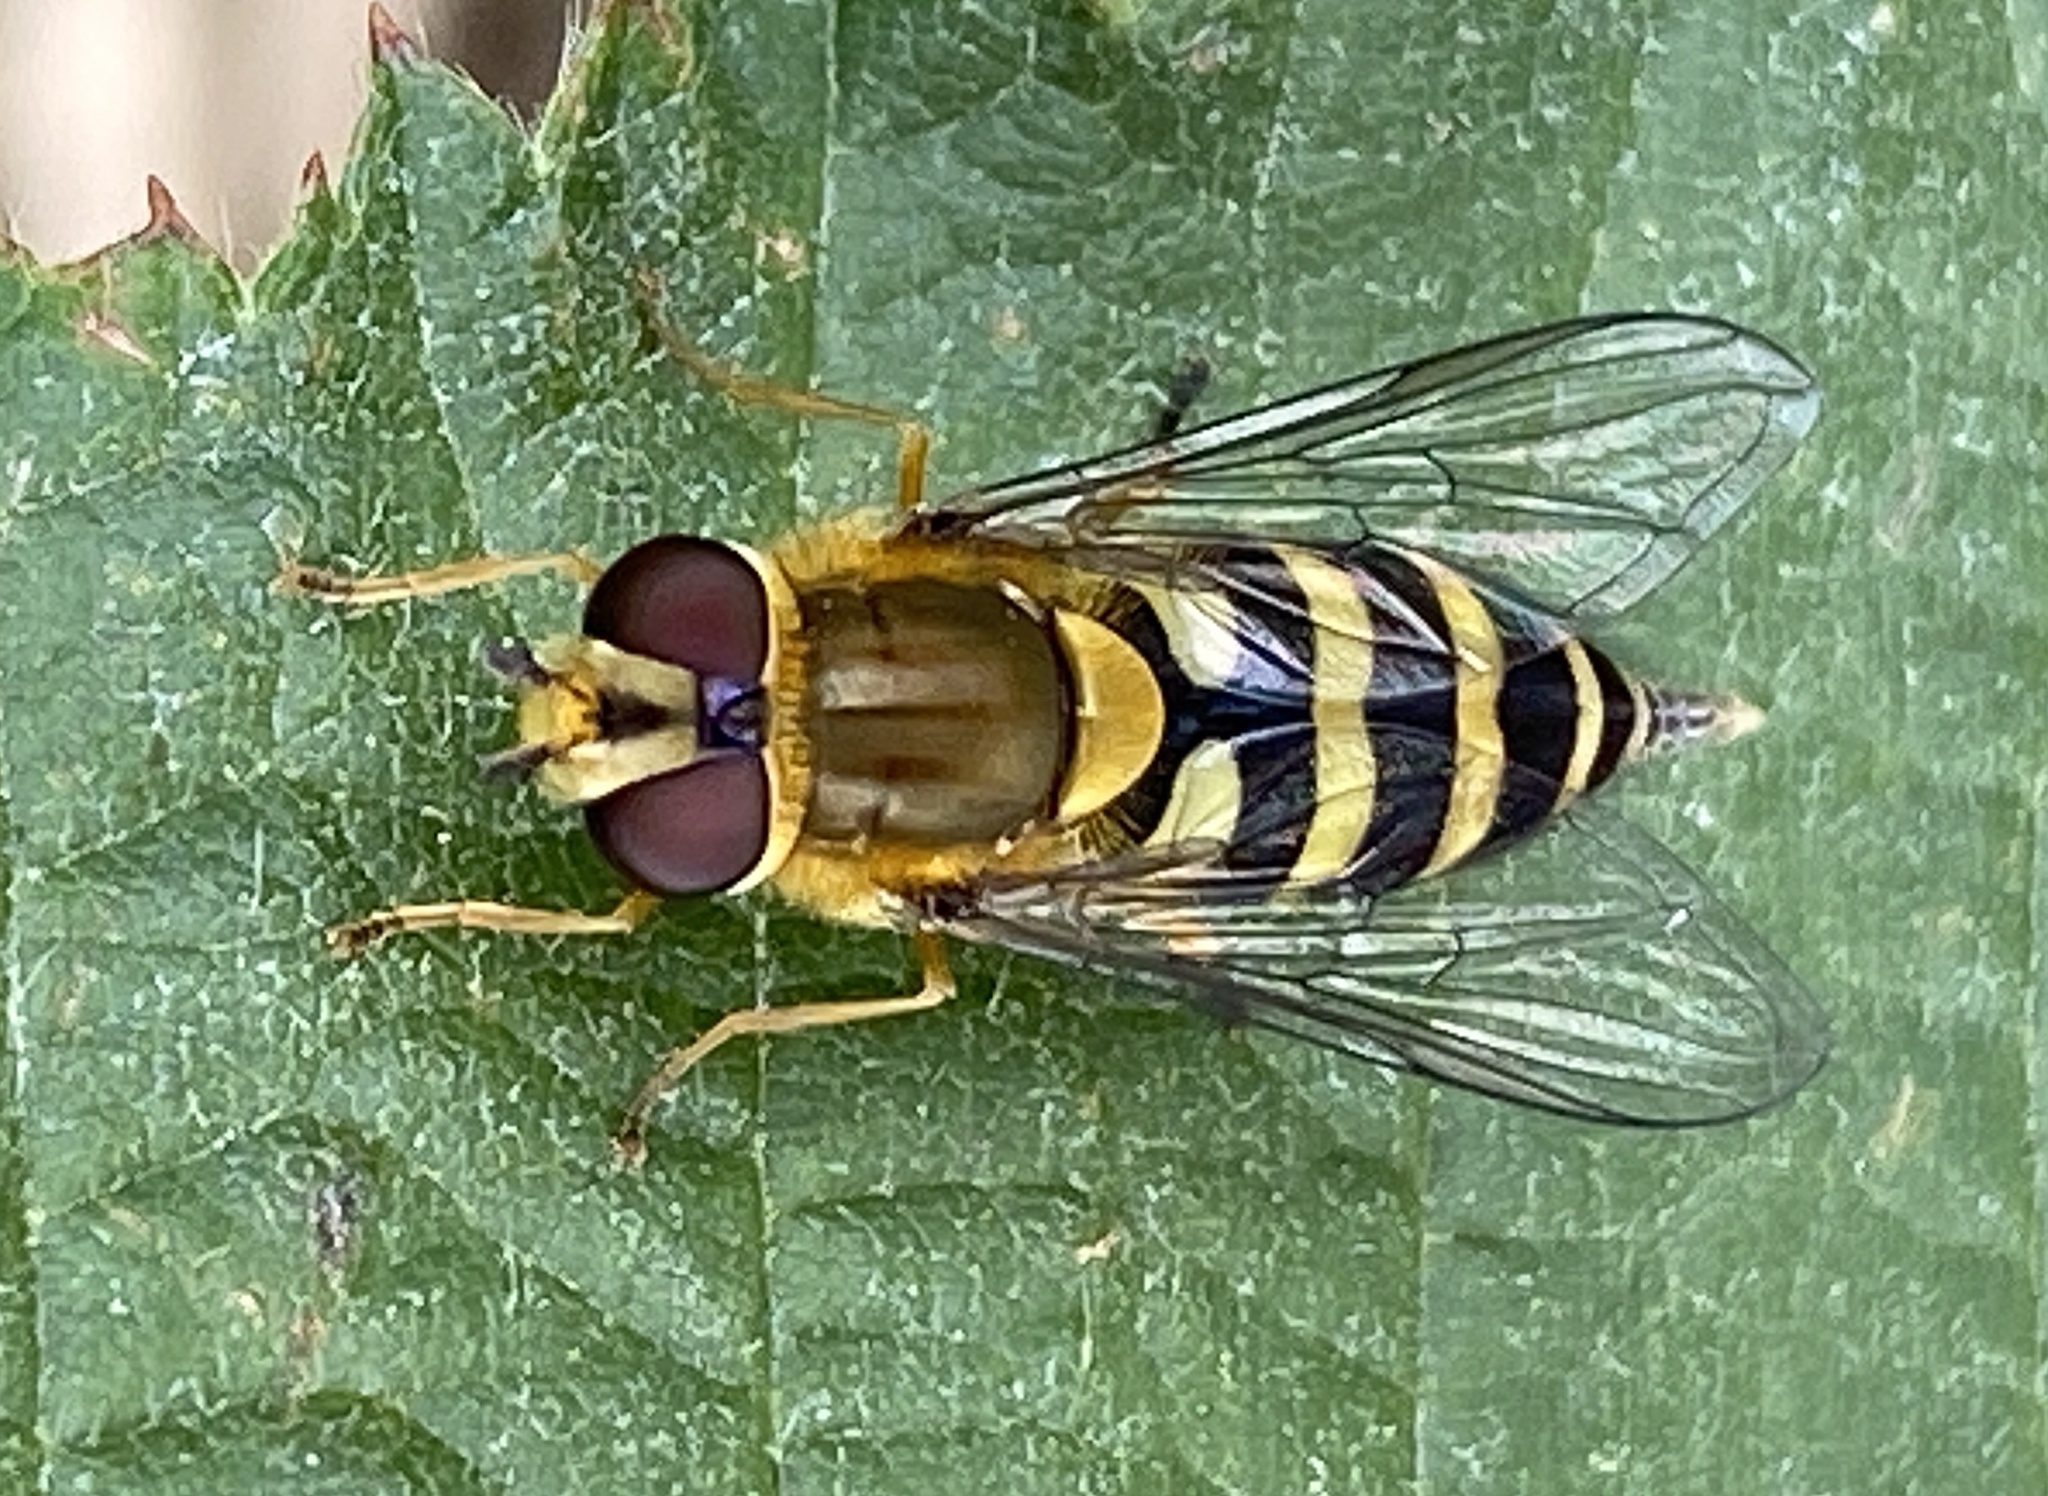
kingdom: Animalia
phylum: Arthropoda
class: Insecta
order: Diptera
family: Syrphidae
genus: Syrphus
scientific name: Syrphus
